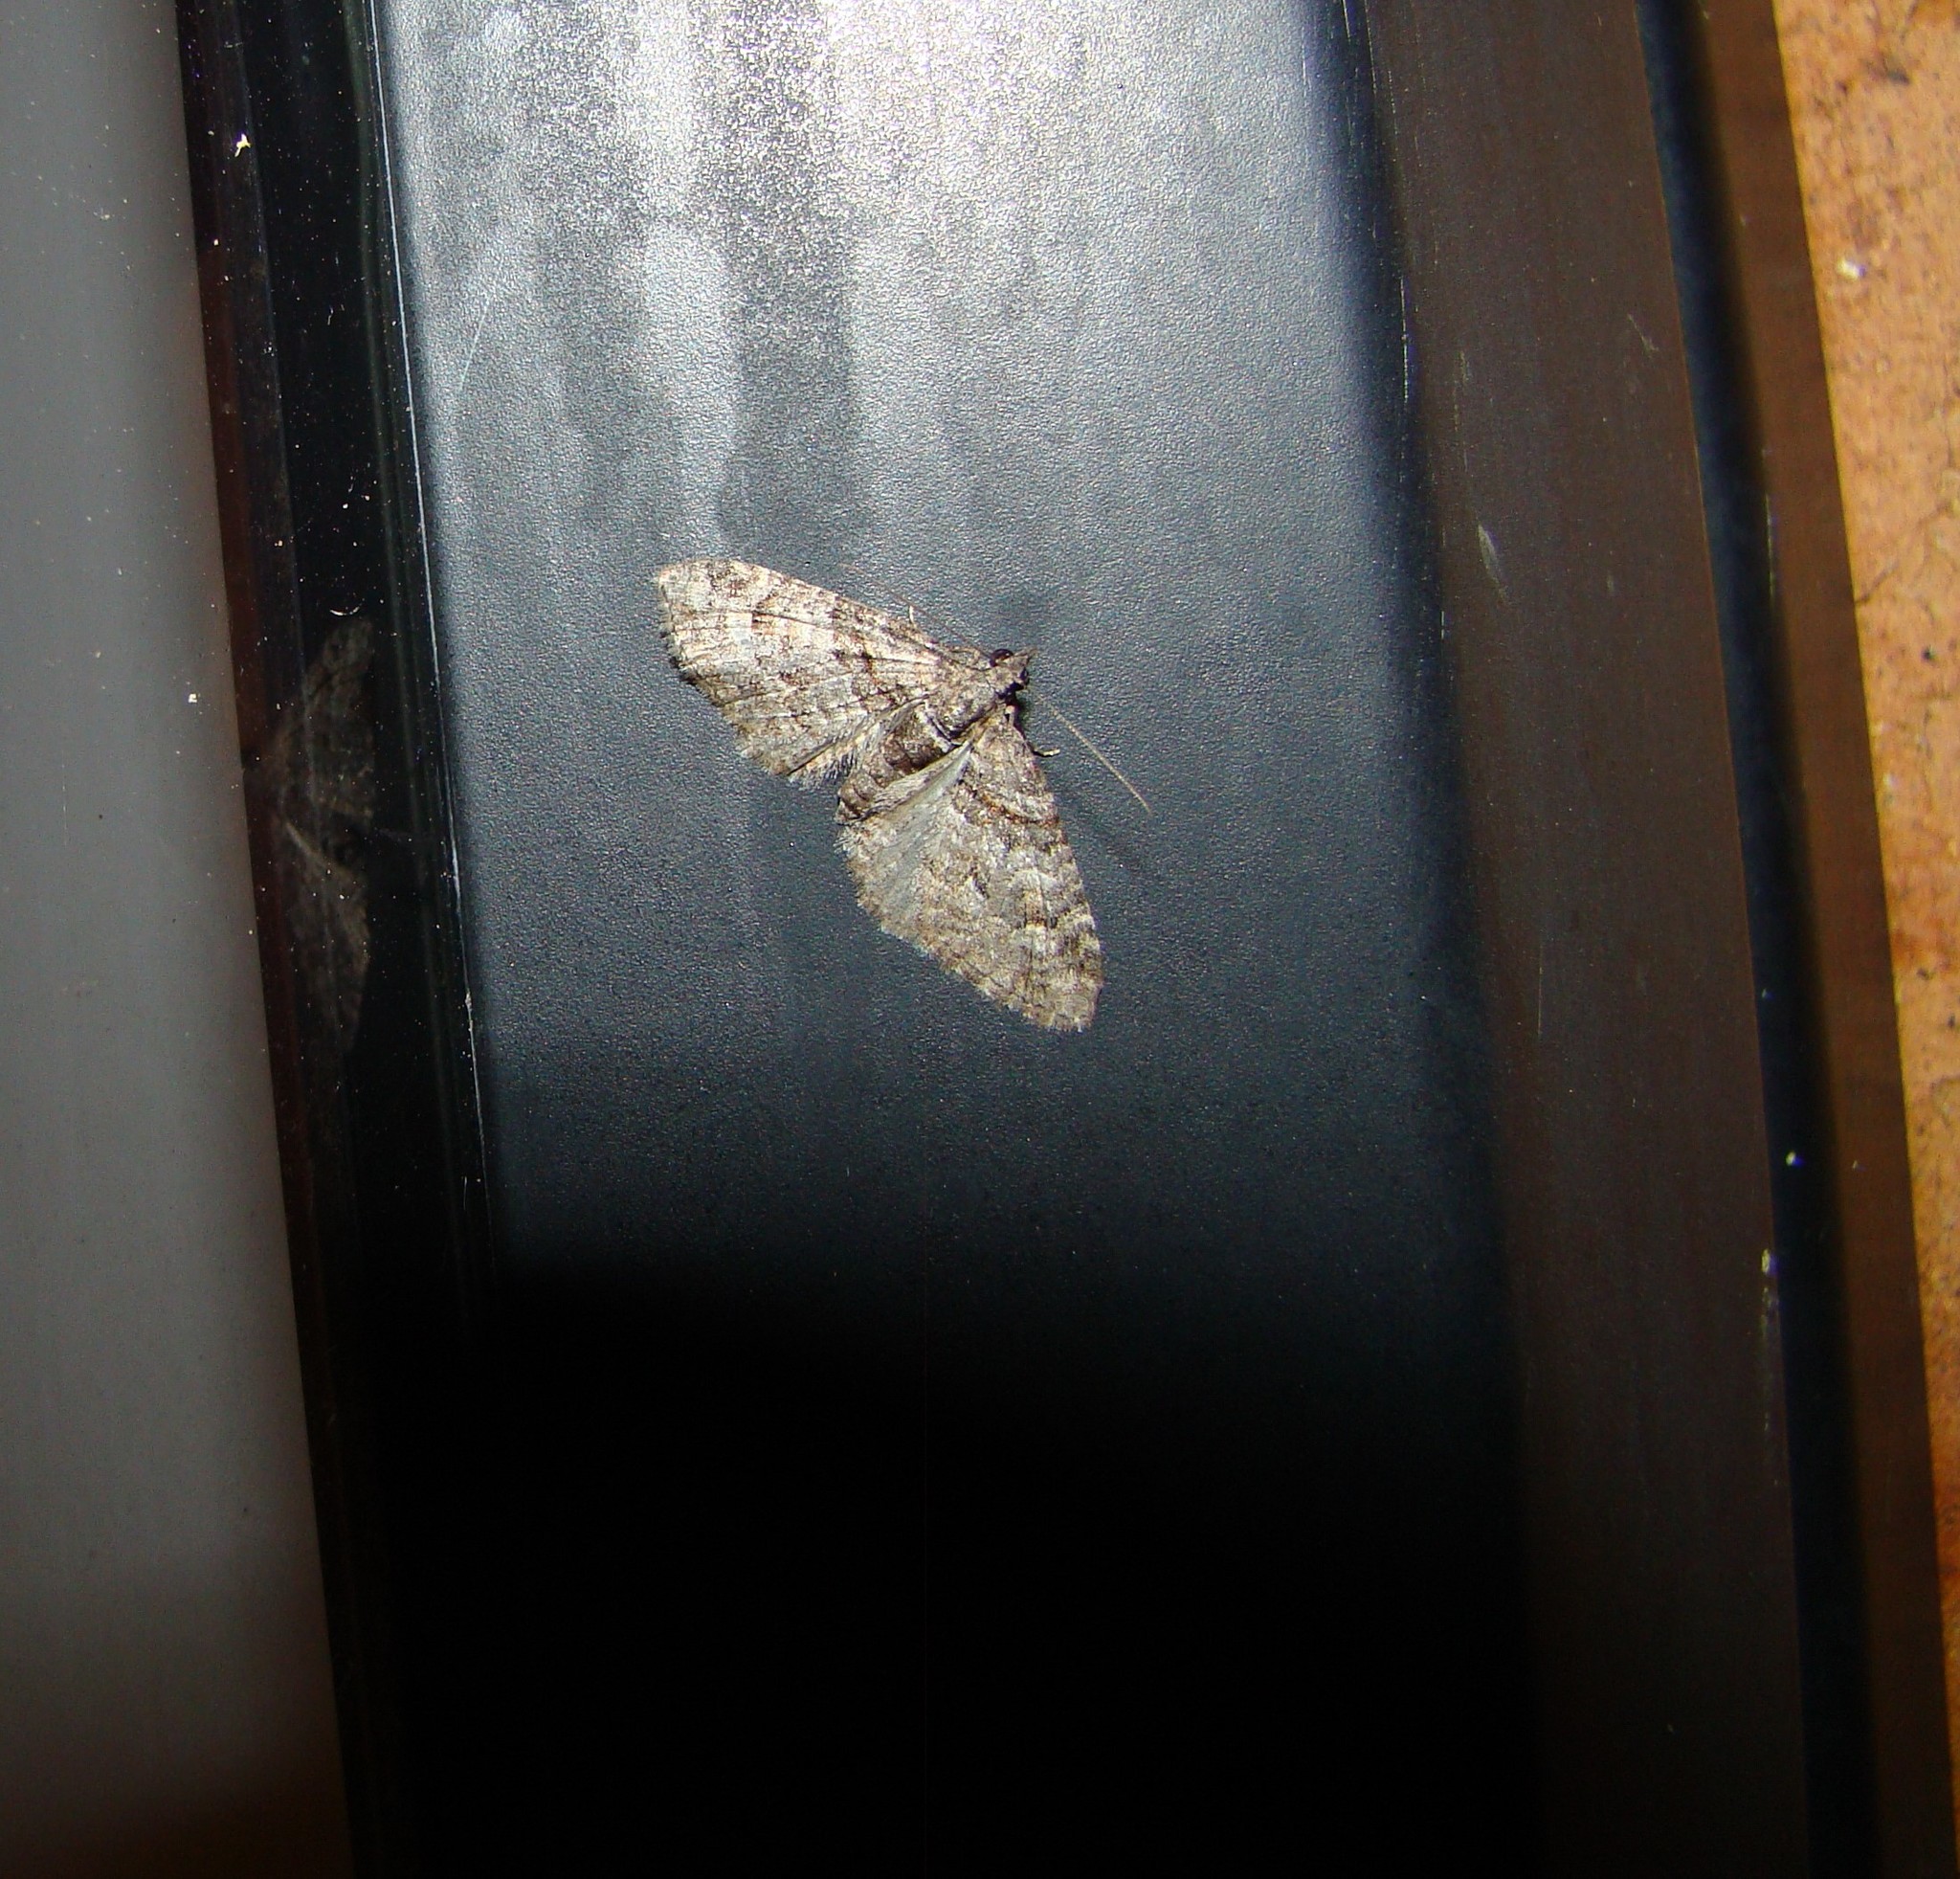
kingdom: Animalia
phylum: Arthropoda
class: Insecta
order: Lepidoptera
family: Geometridae
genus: Phrissogonus
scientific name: Phrissogonus laticostata
